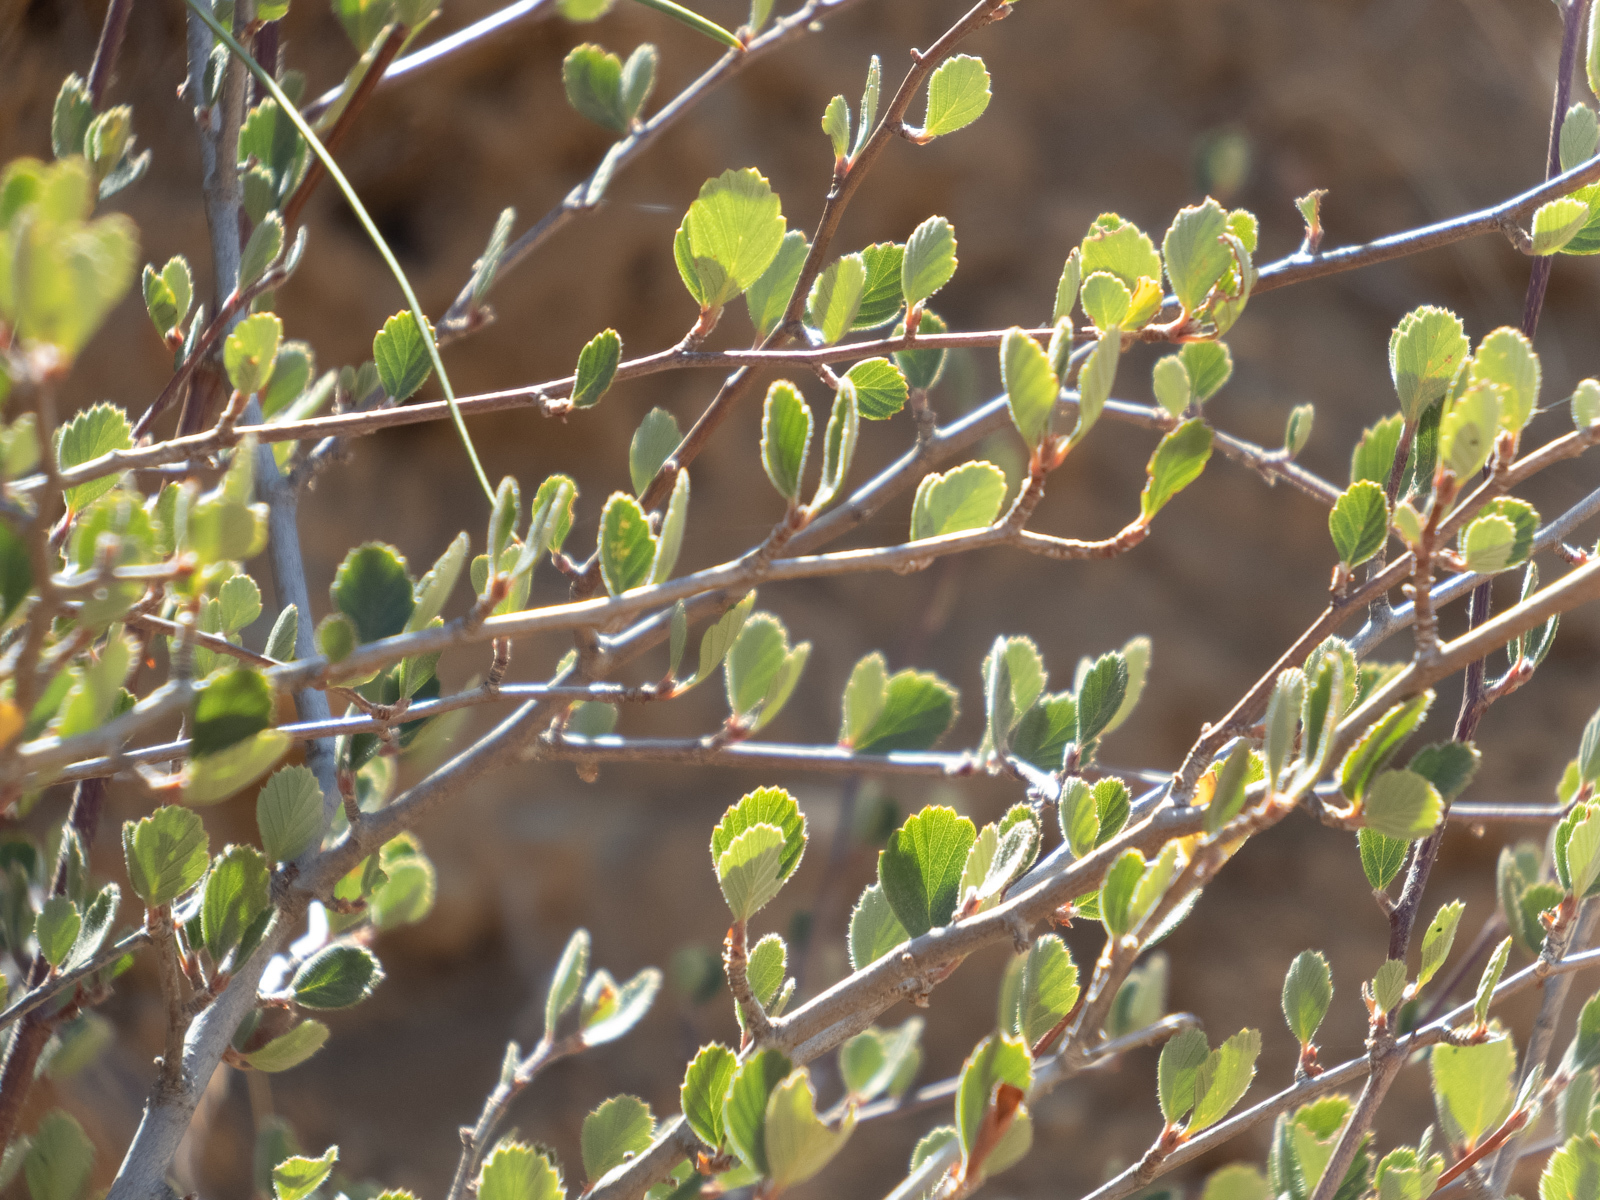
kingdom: Plantae
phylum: Tracheophyta
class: Magnoliopsida
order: Rosales
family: Rosaceae
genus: Cercocarpus
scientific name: Cercocarpus betuloides
